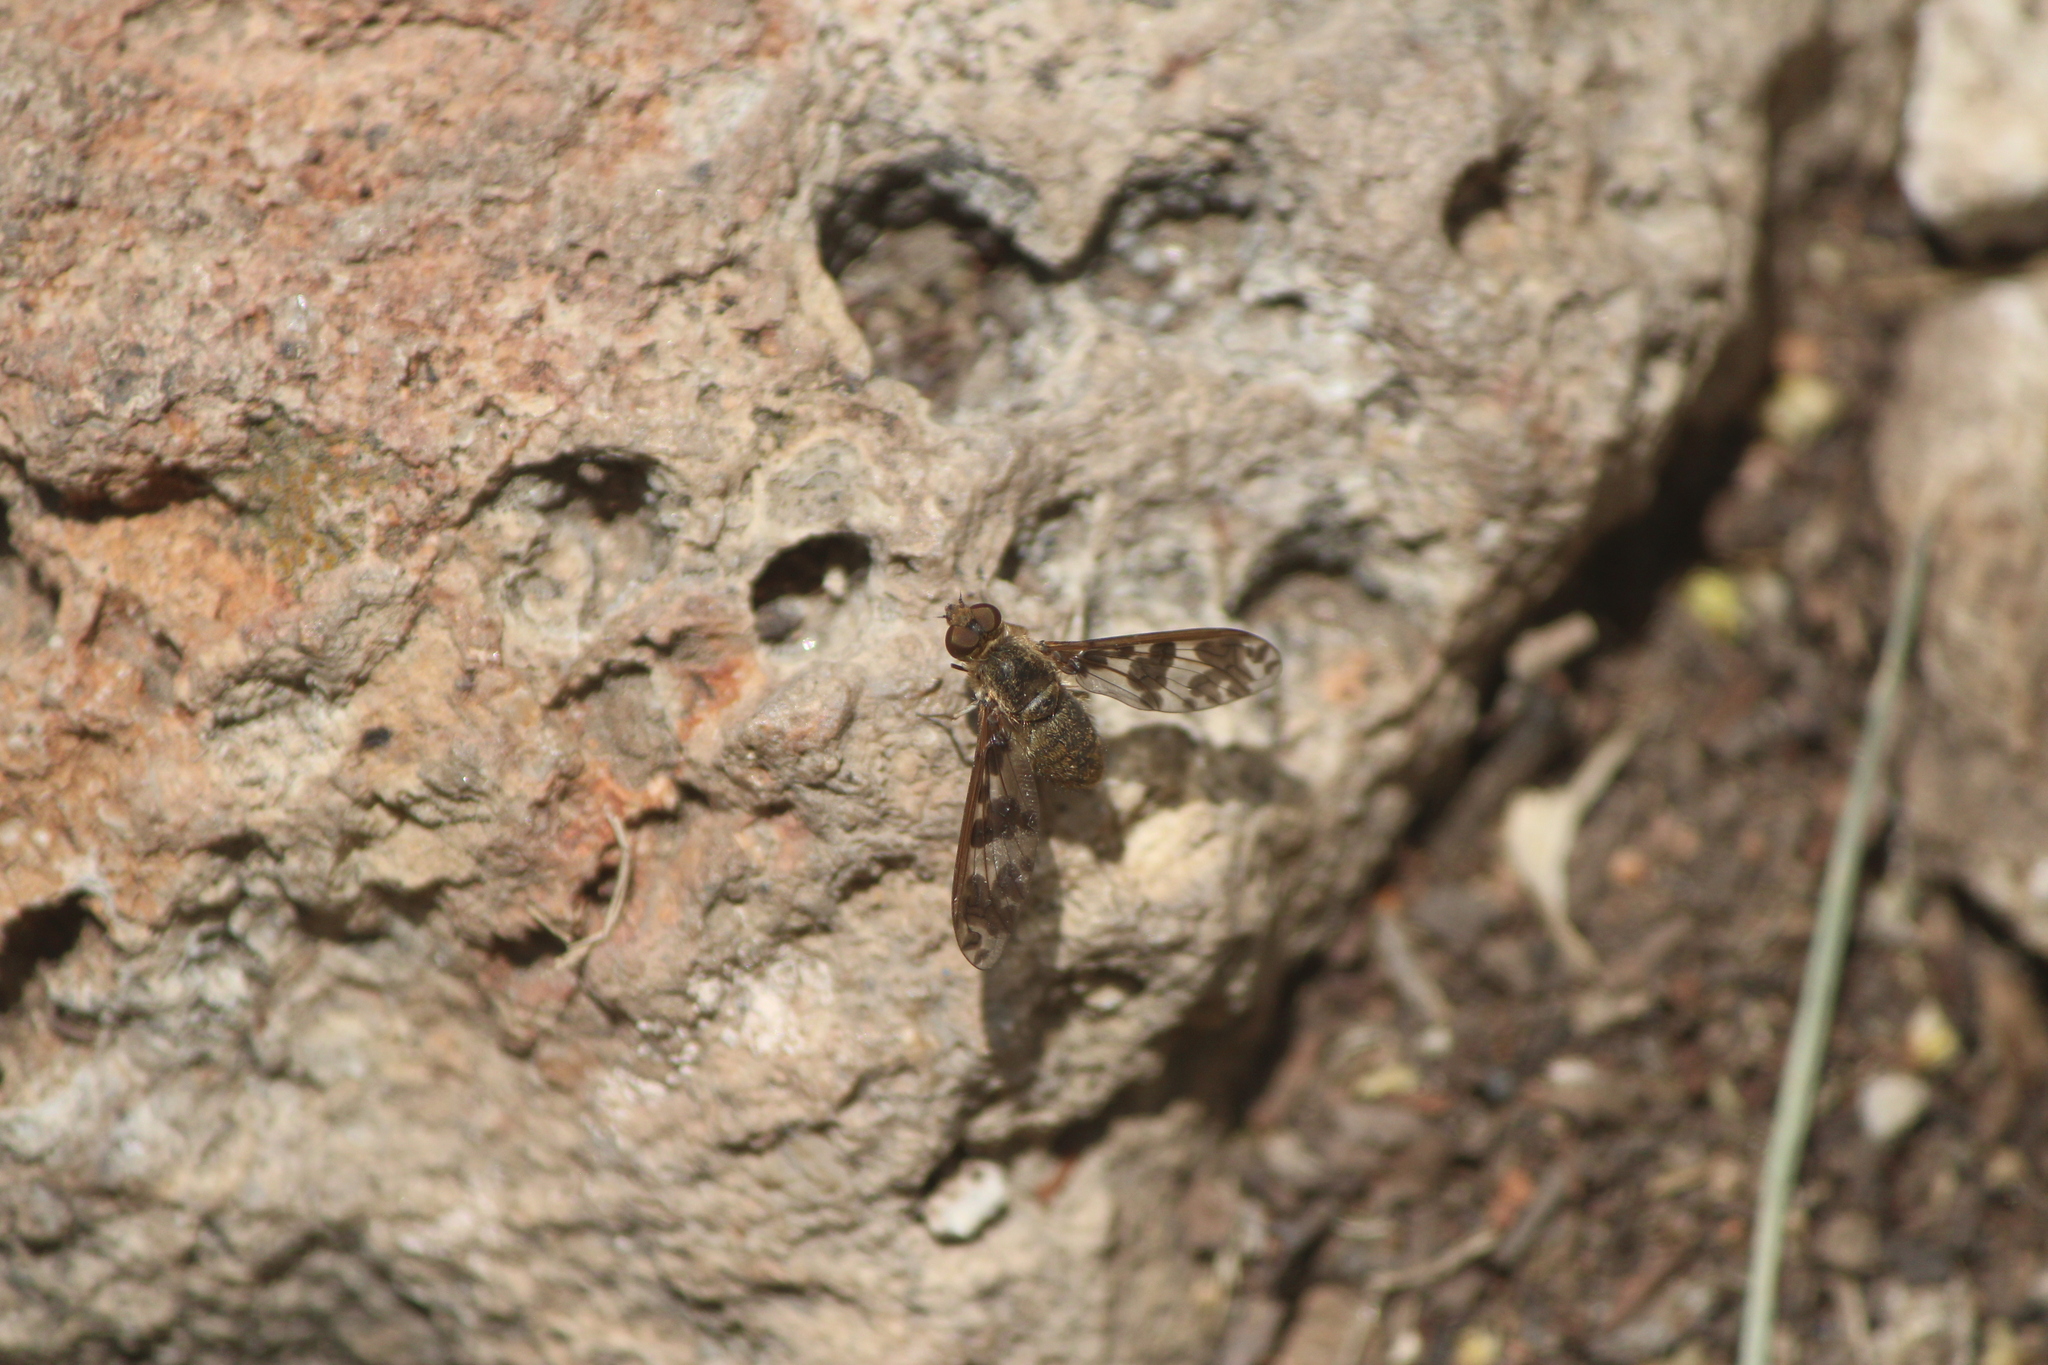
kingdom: Animalia
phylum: Arthropoda
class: Insecta
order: Diptera
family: Bombyliidae
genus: Dipalta
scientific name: Dipalta serpentina
